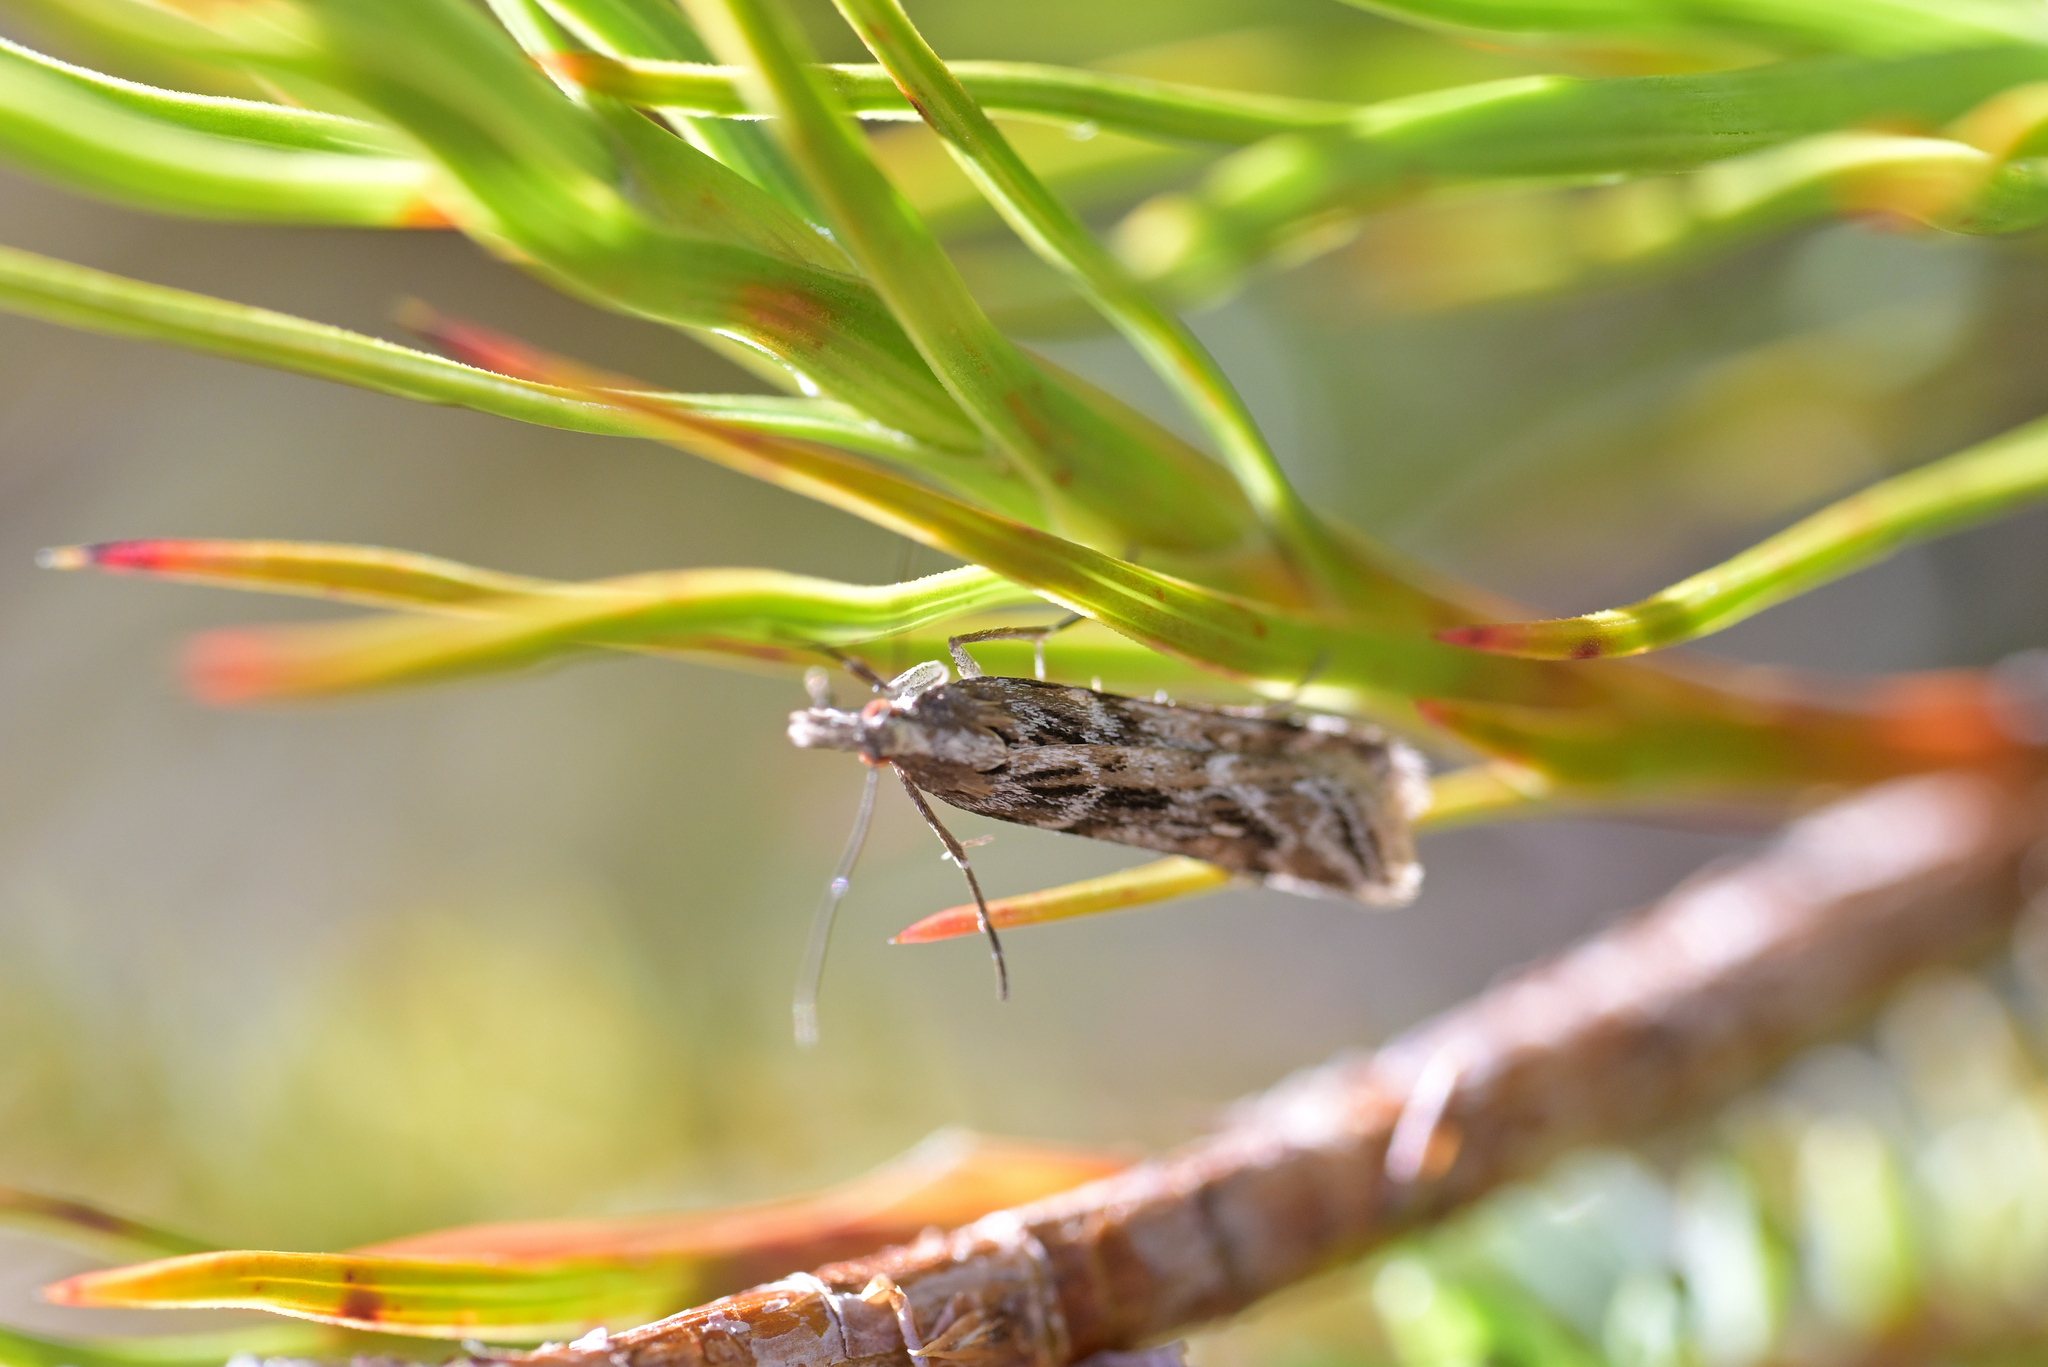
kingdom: Animalia
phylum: Arthropoda
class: Insecta
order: Lepidoptera
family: Crambidae
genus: Scoparia
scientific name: Scoparia exilis
